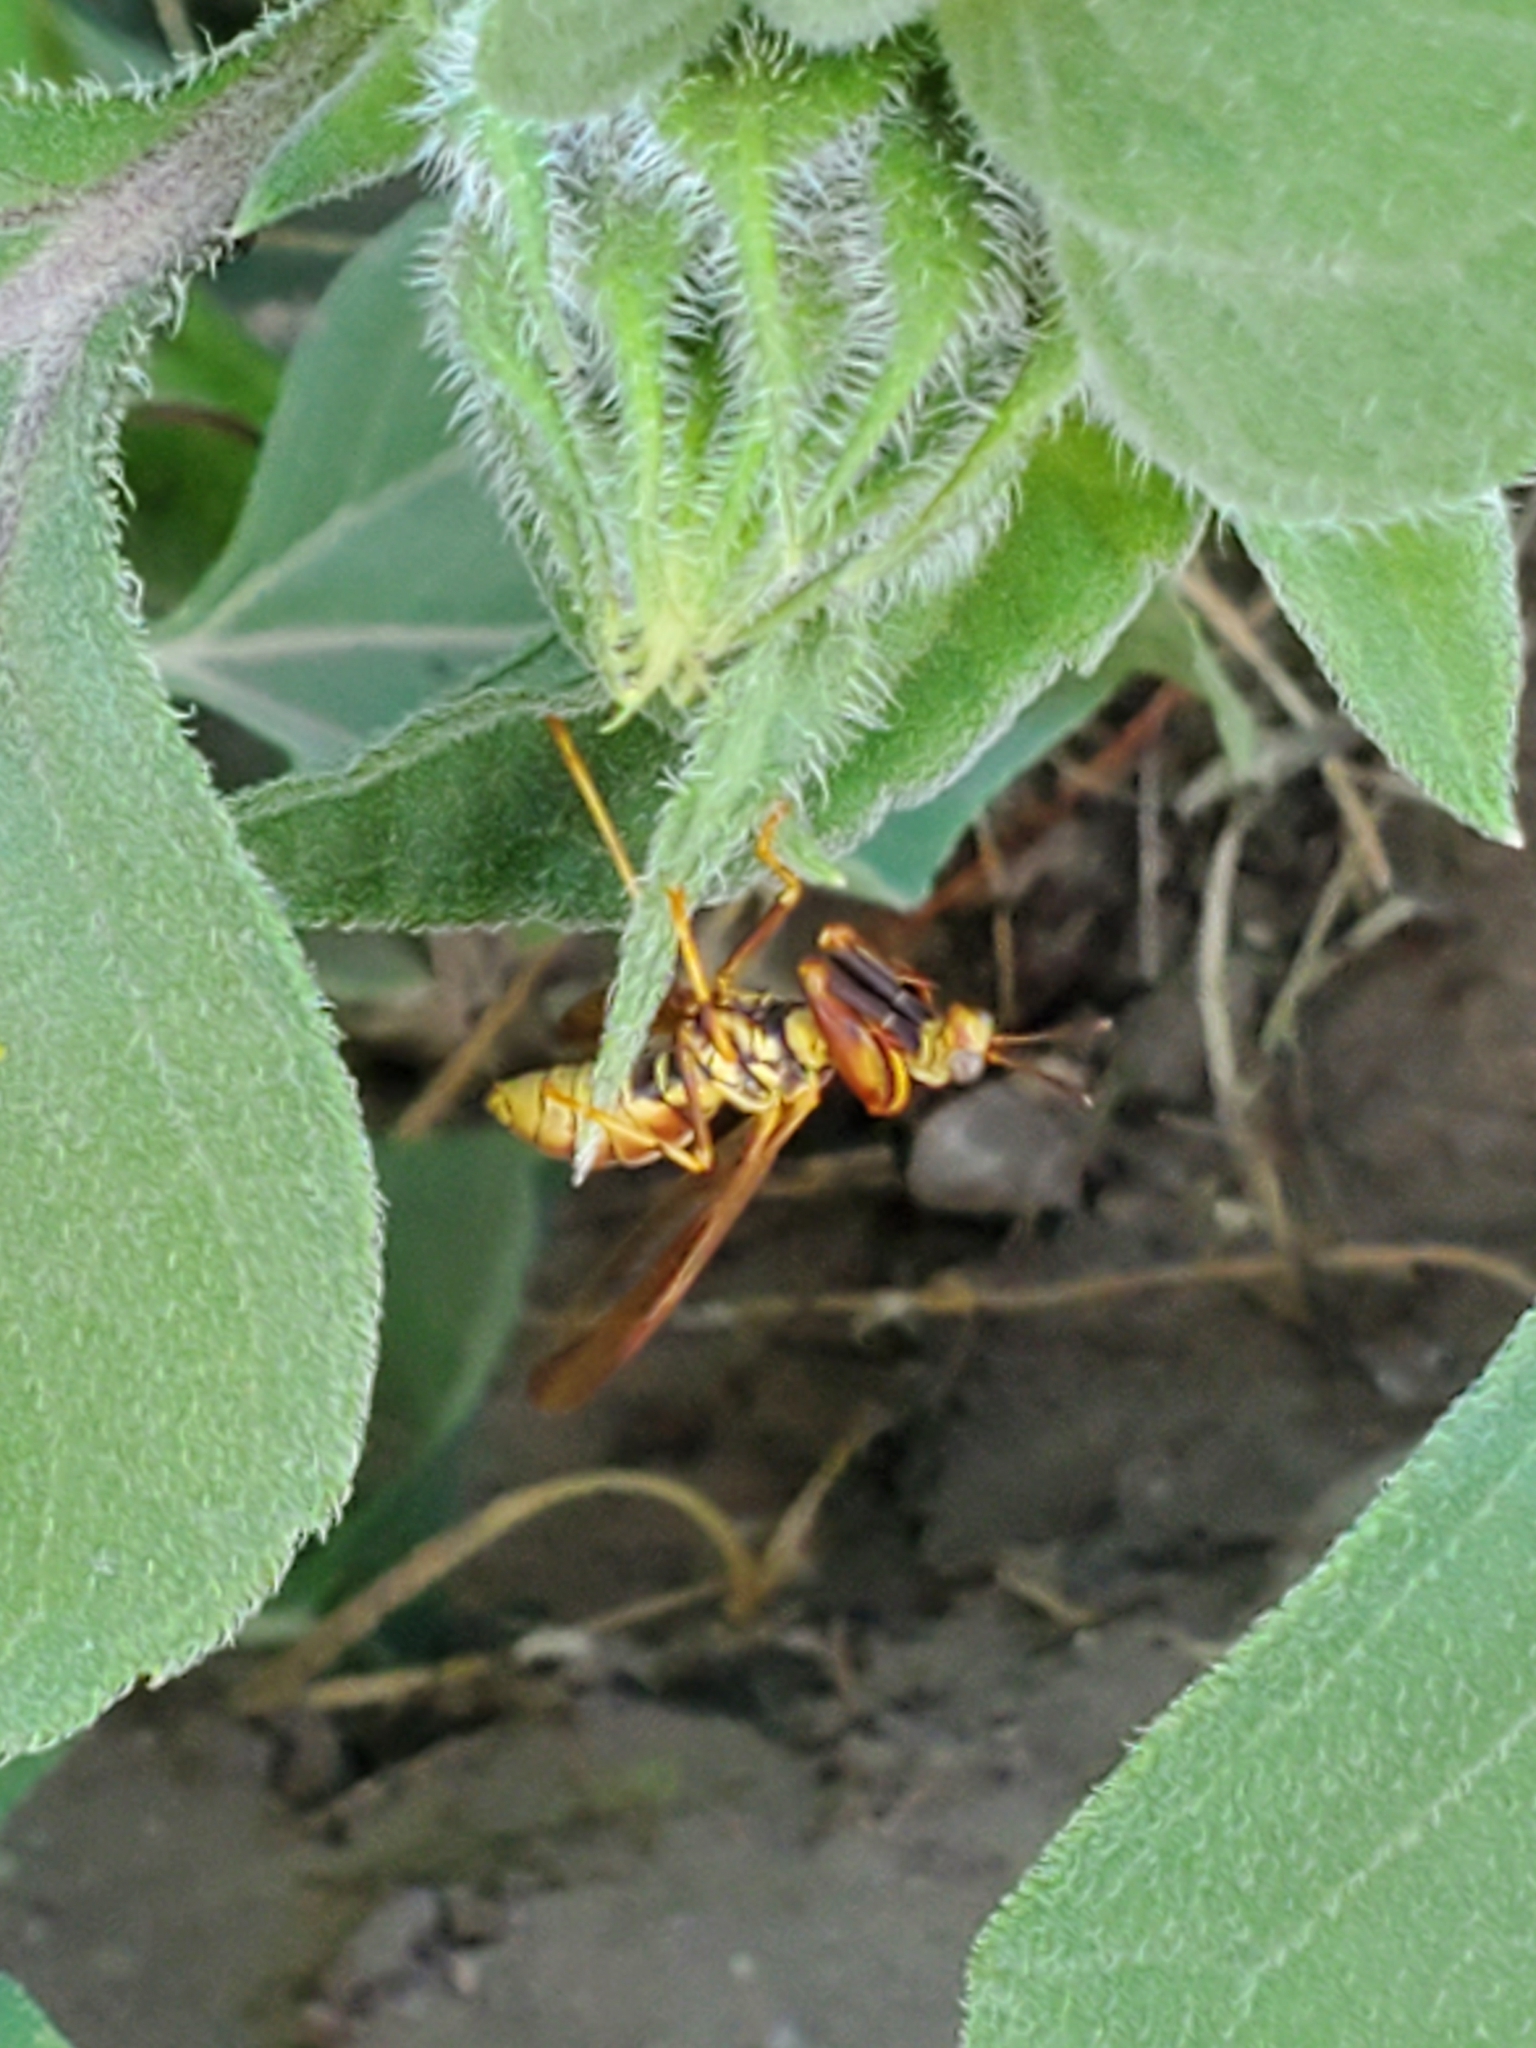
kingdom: Animalia
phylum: Arthropoda
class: Insecta
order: Neuroptera
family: Mantispidae
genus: Climaciella
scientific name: Climaciella brunnea
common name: Brown wasp mantidfly
